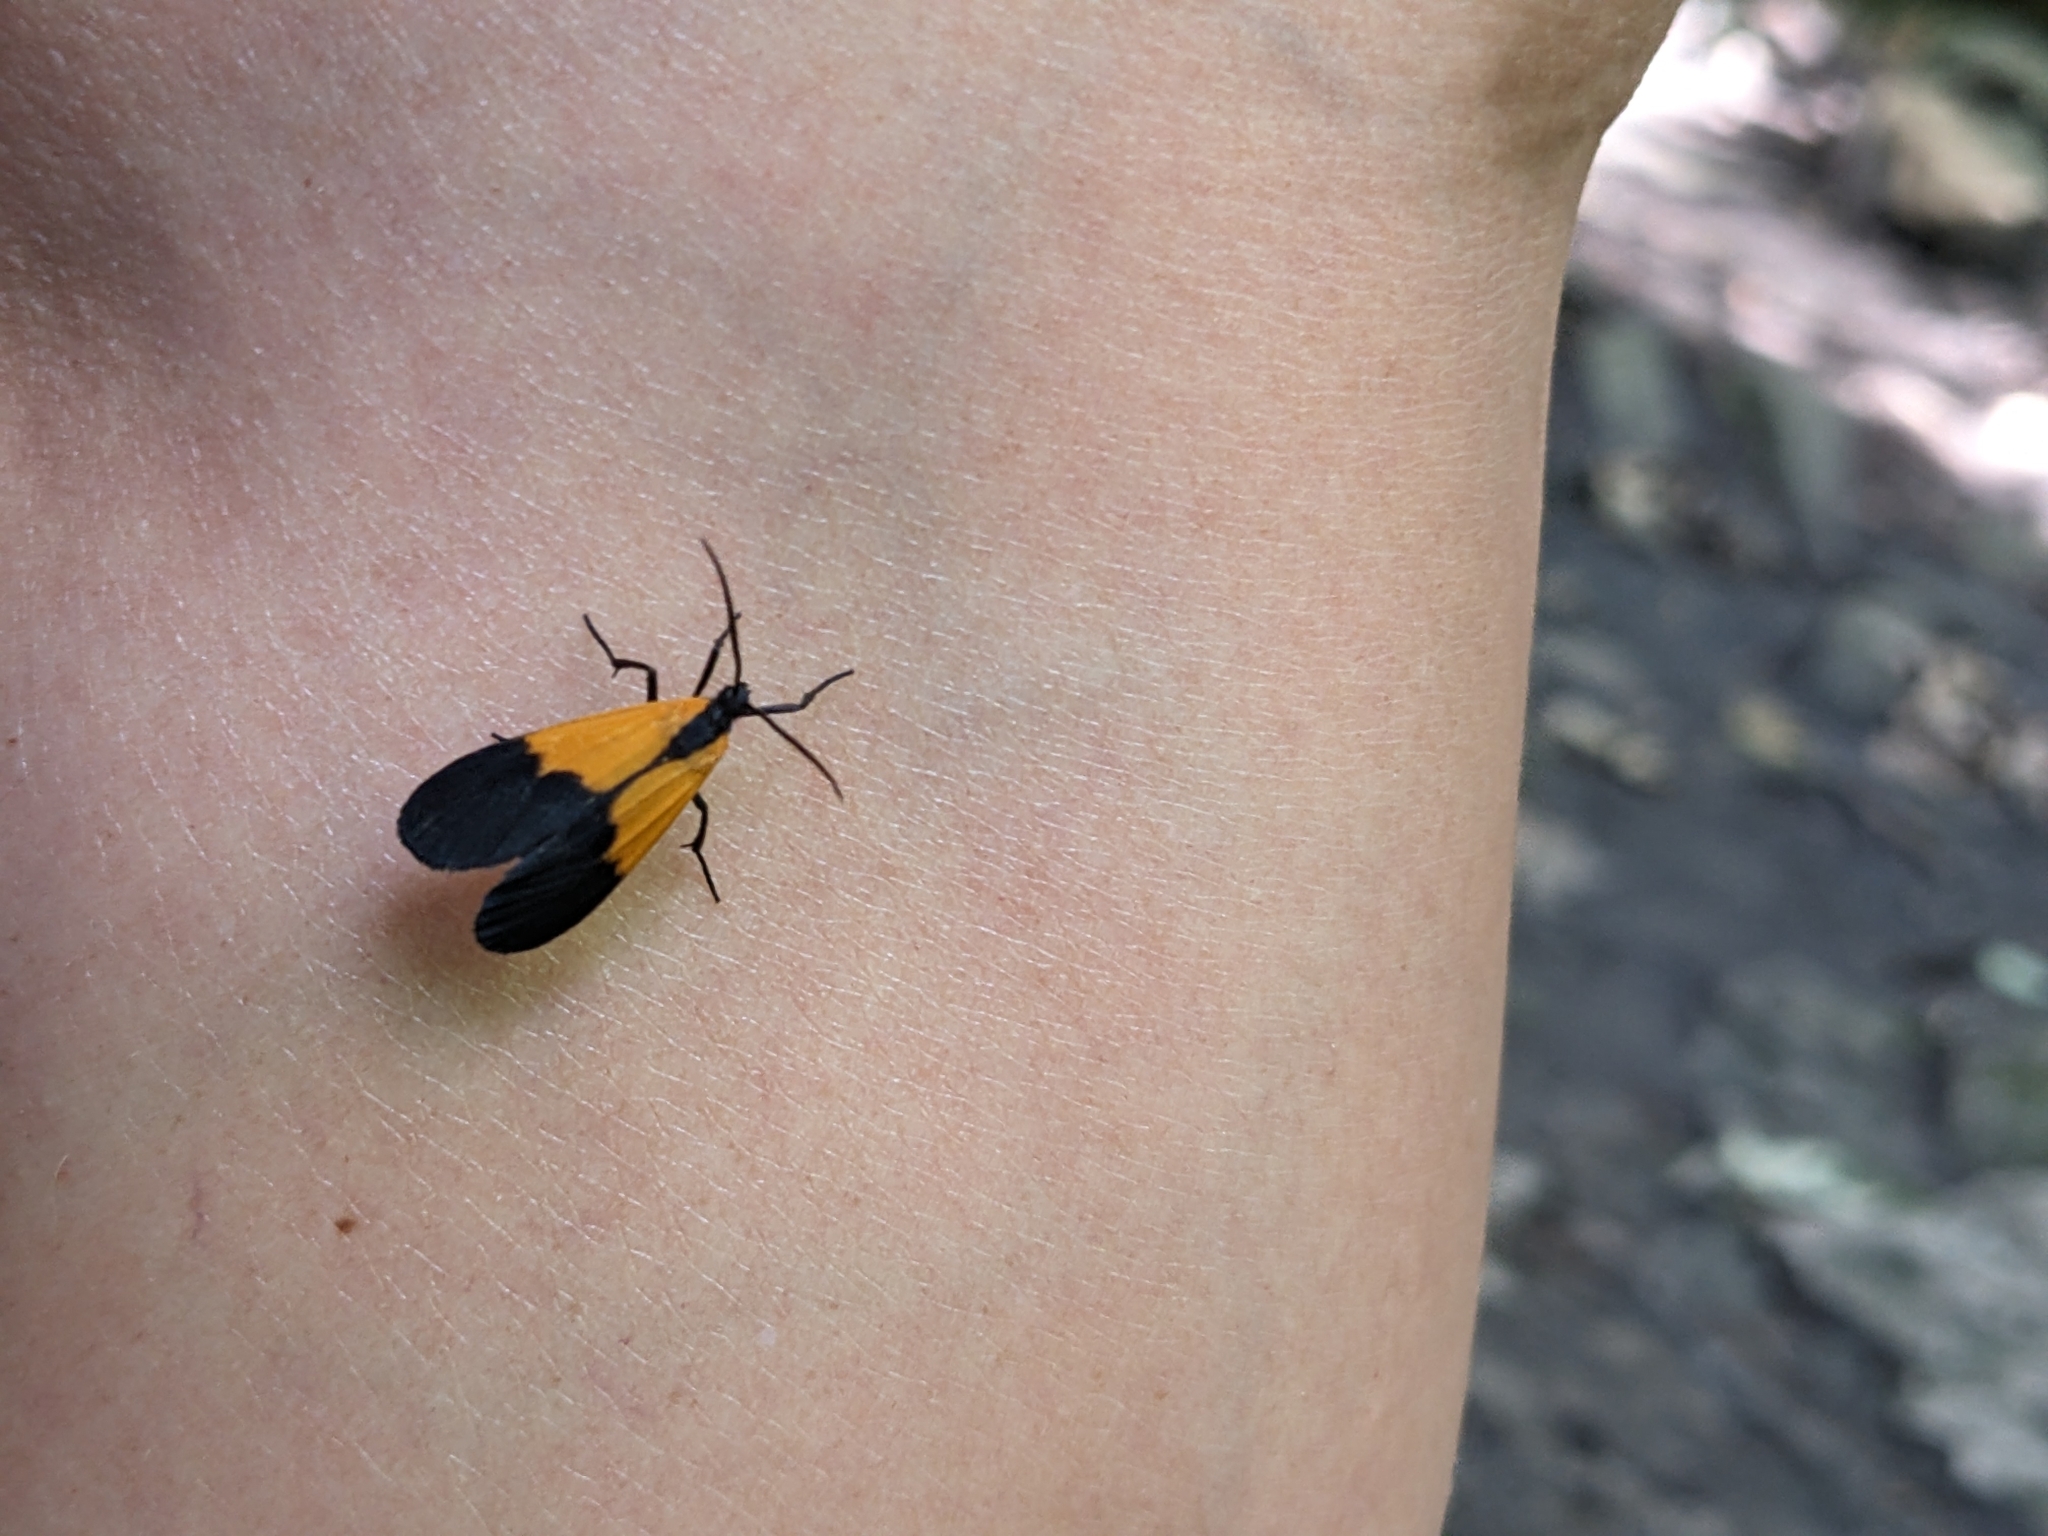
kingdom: Animalia
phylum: Arthropoda
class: Insecta
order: Lepidoptera
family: Erebidae
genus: Lycomorpha
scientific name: Lycomorpha pholus
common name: Black-and-yellow lichen moth
